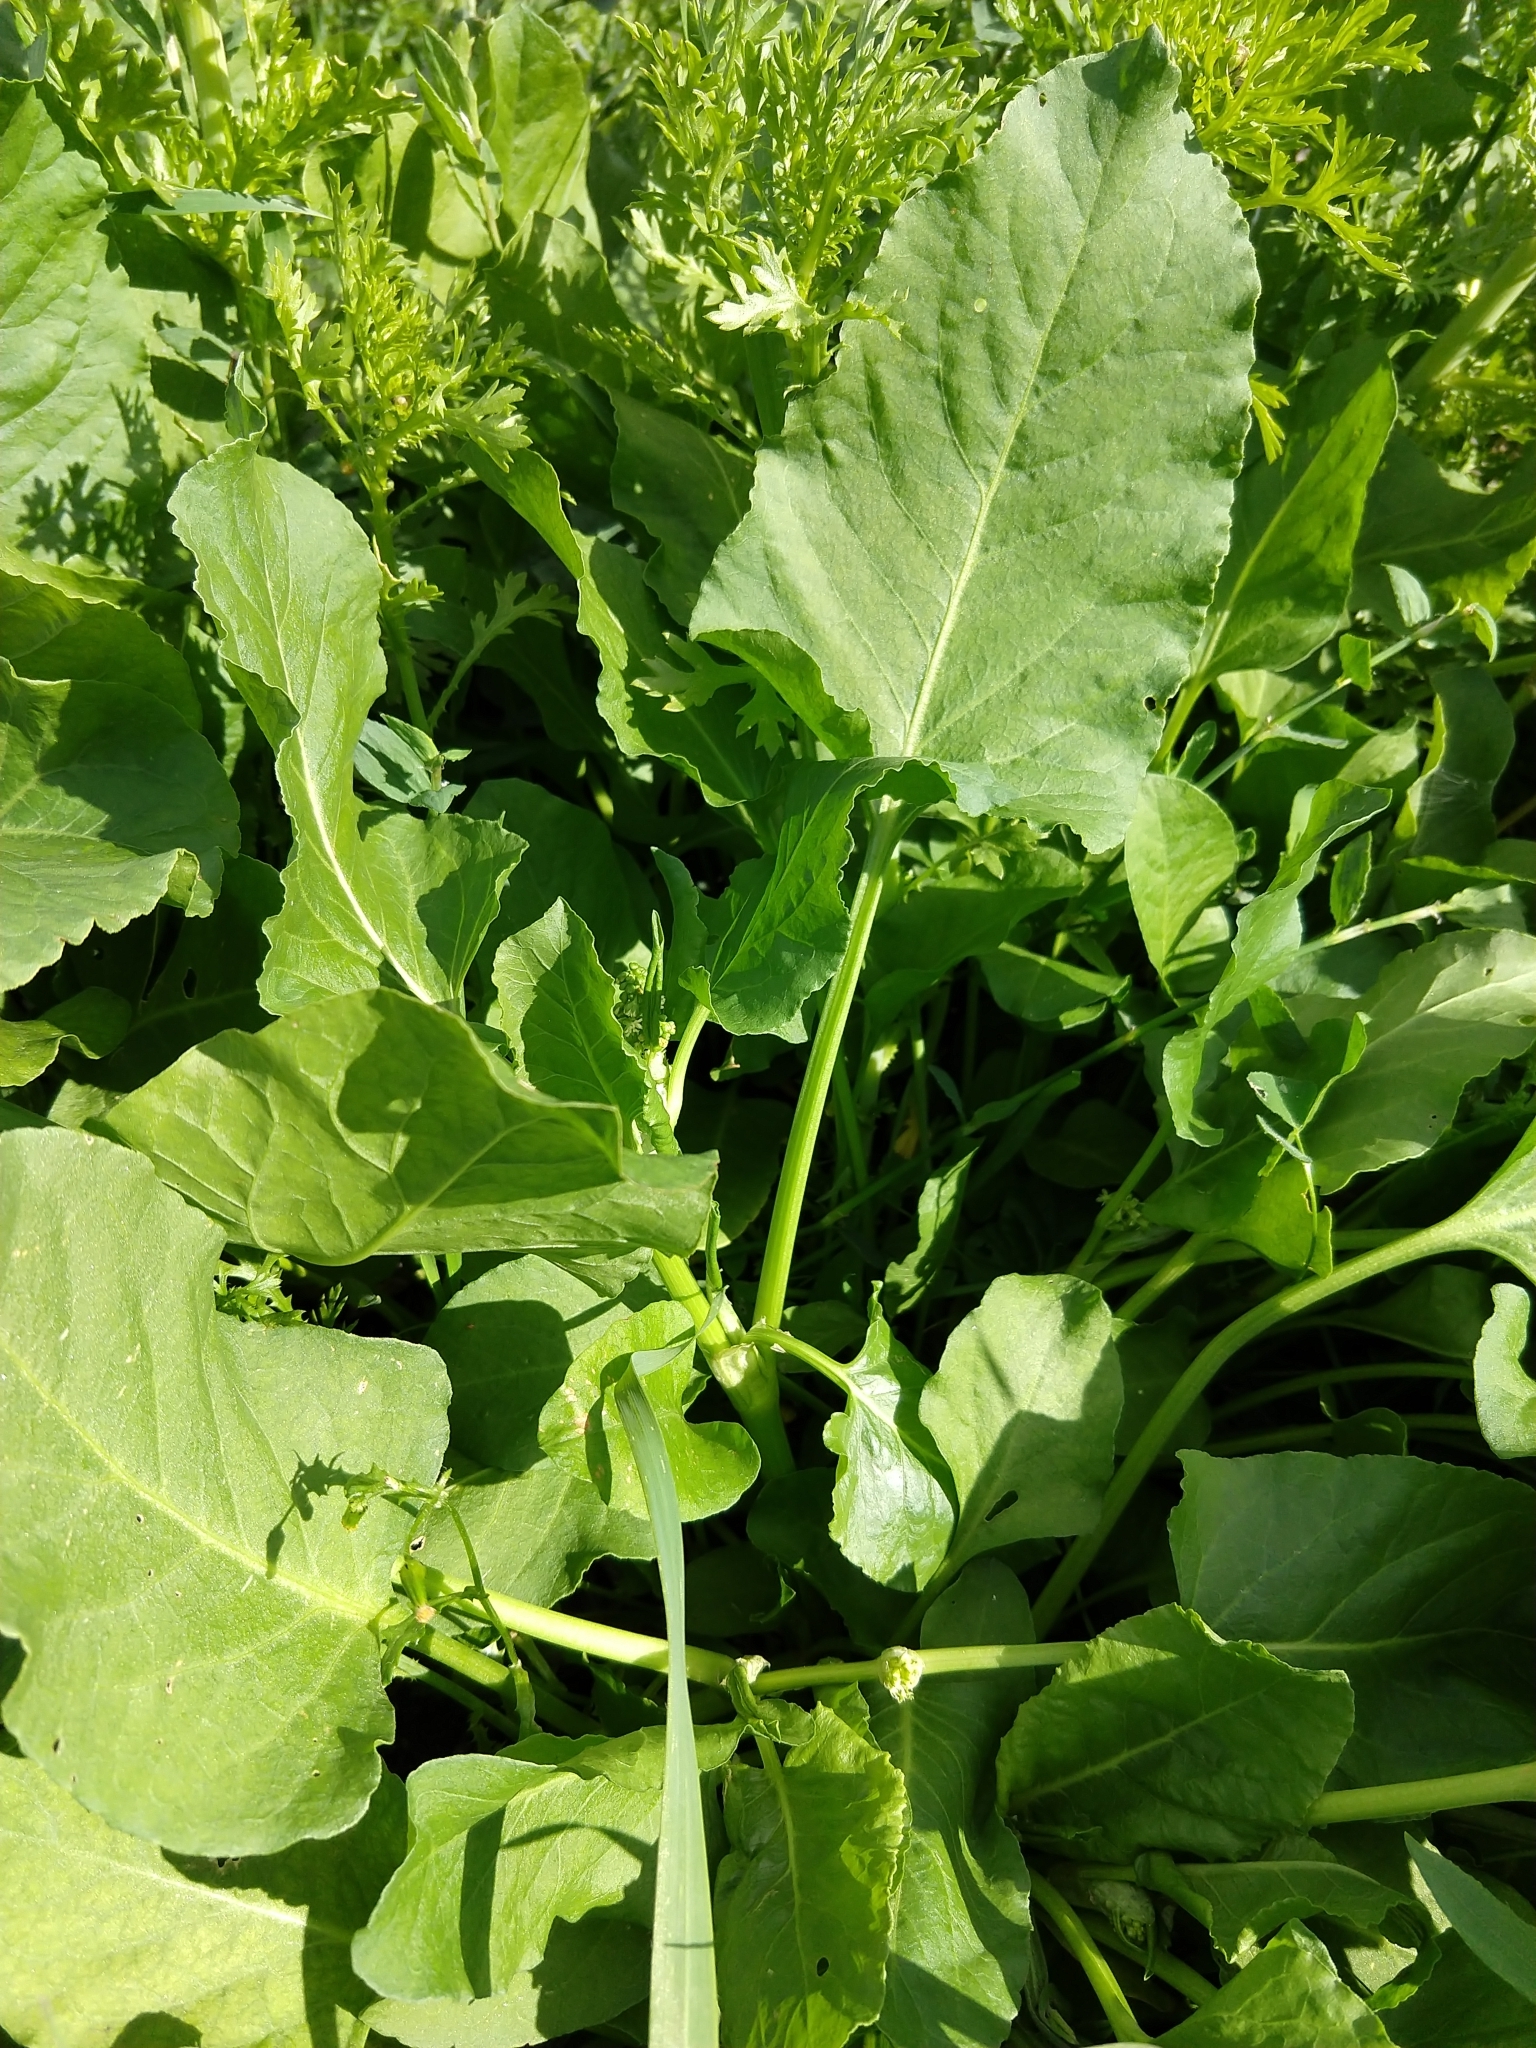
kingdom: Plantae
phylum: Tracheophyta
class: Magnoliopsida
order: Caryophyllales
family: Polygonaceae
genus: Rumex
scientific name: Rumex spinosus
